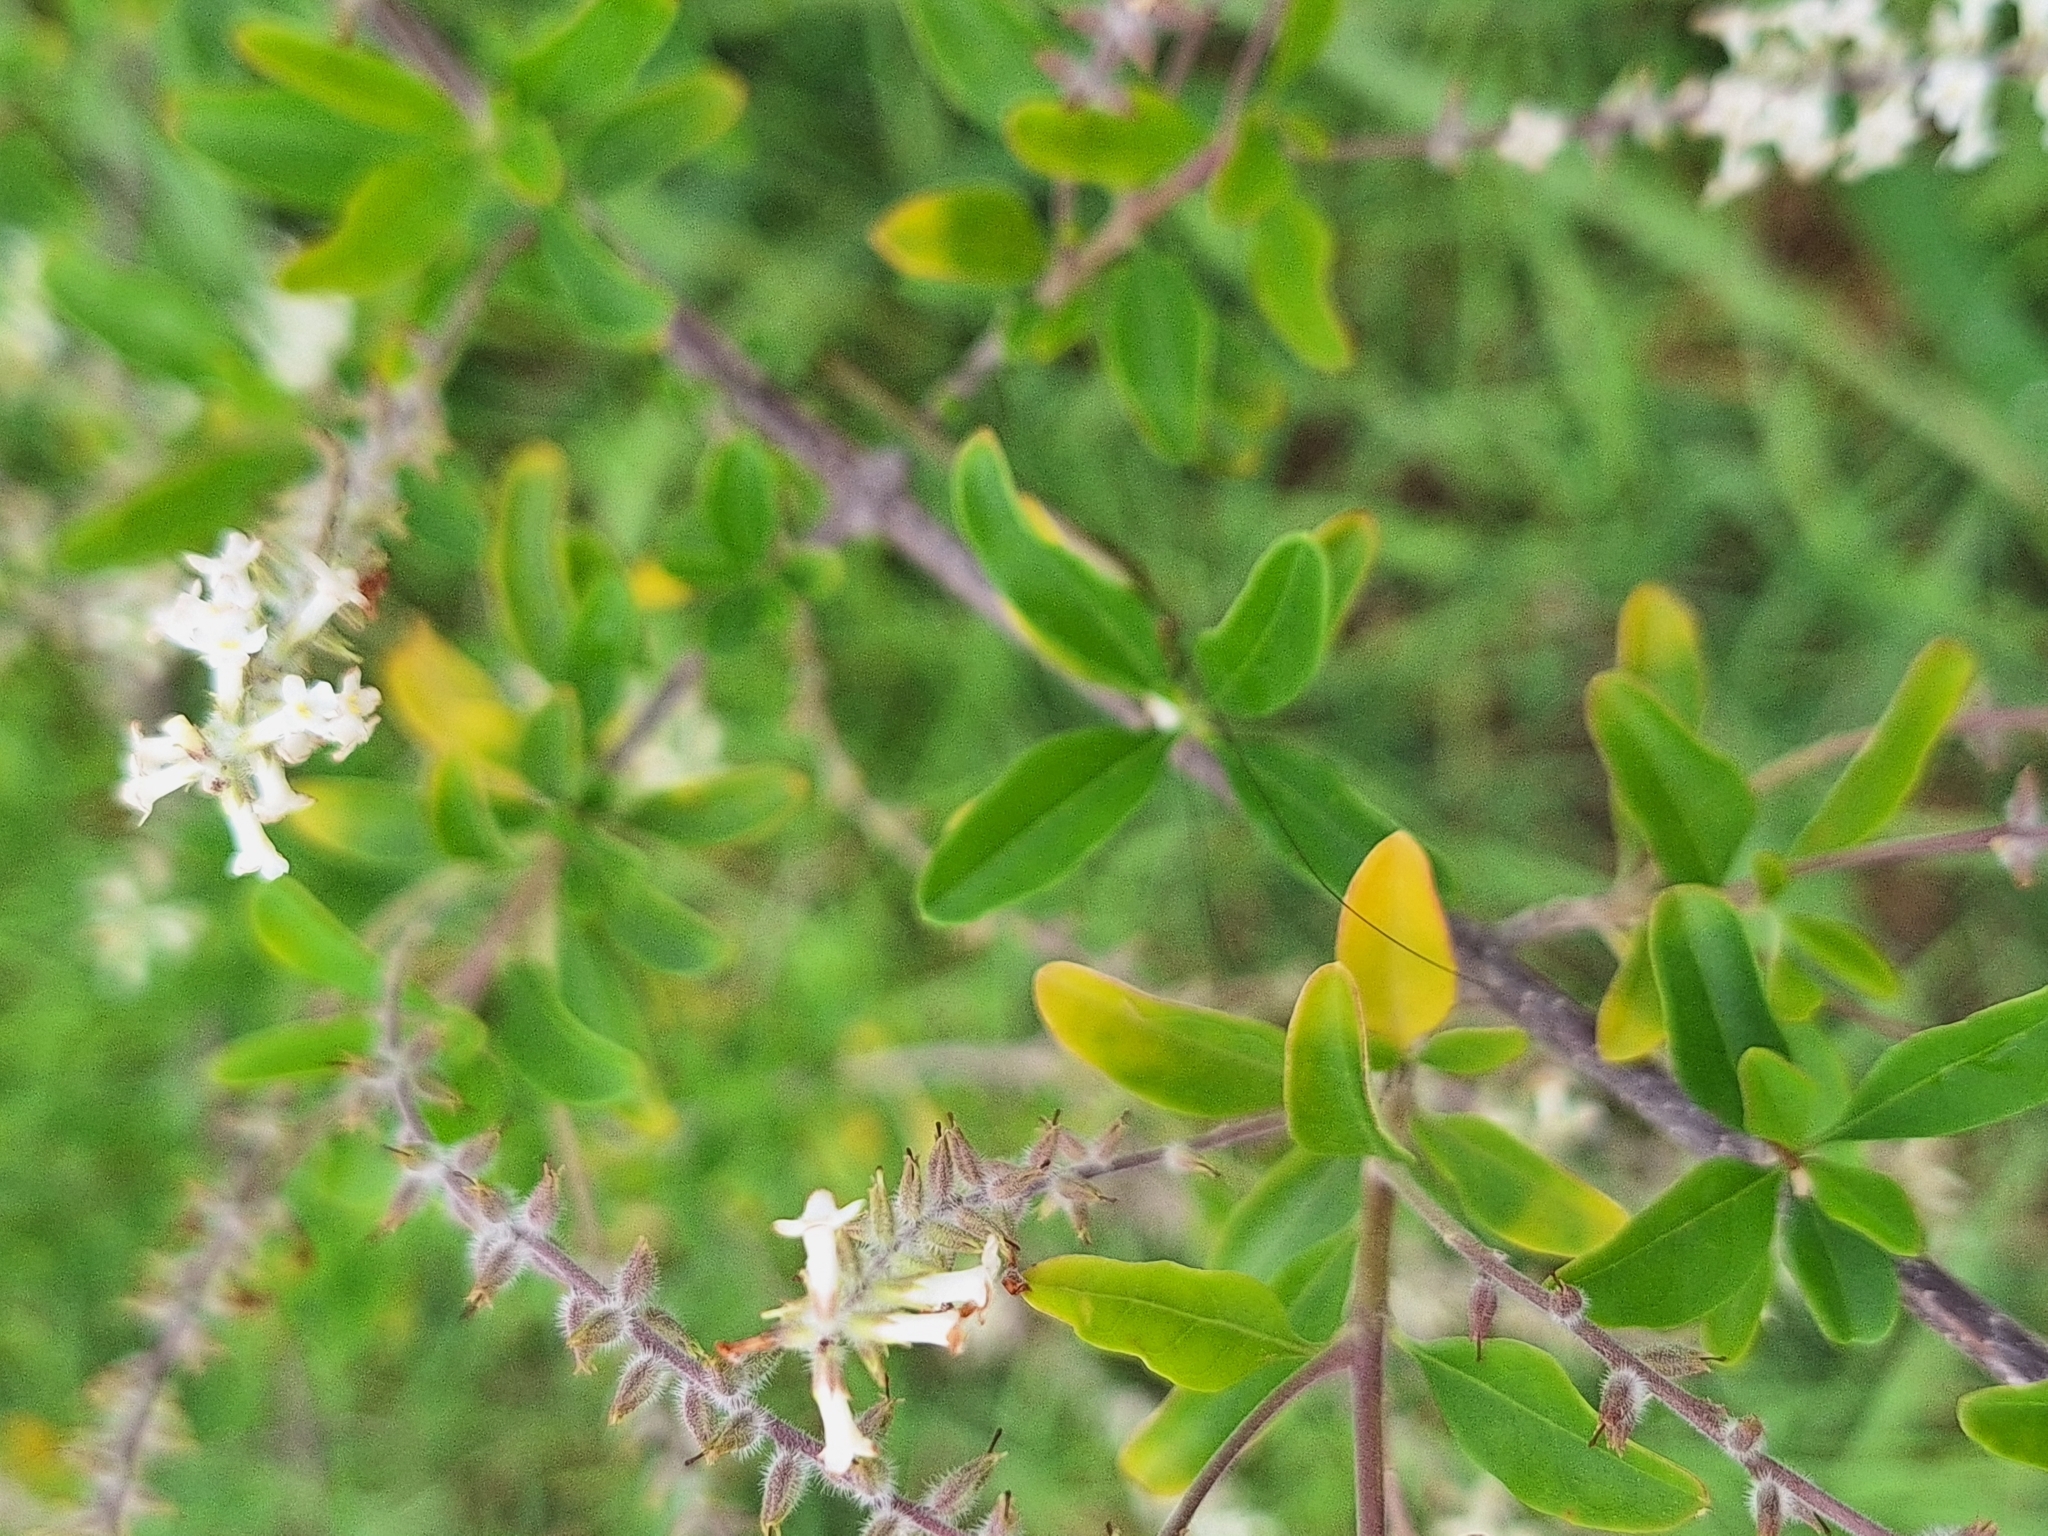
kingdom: Plantae
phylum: Tracheophyta
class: Magnoliopsida
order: Lamiales
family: Verbenaceae
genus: Aloysia
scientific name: Aloysia gratissima
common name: Common bee-brush
